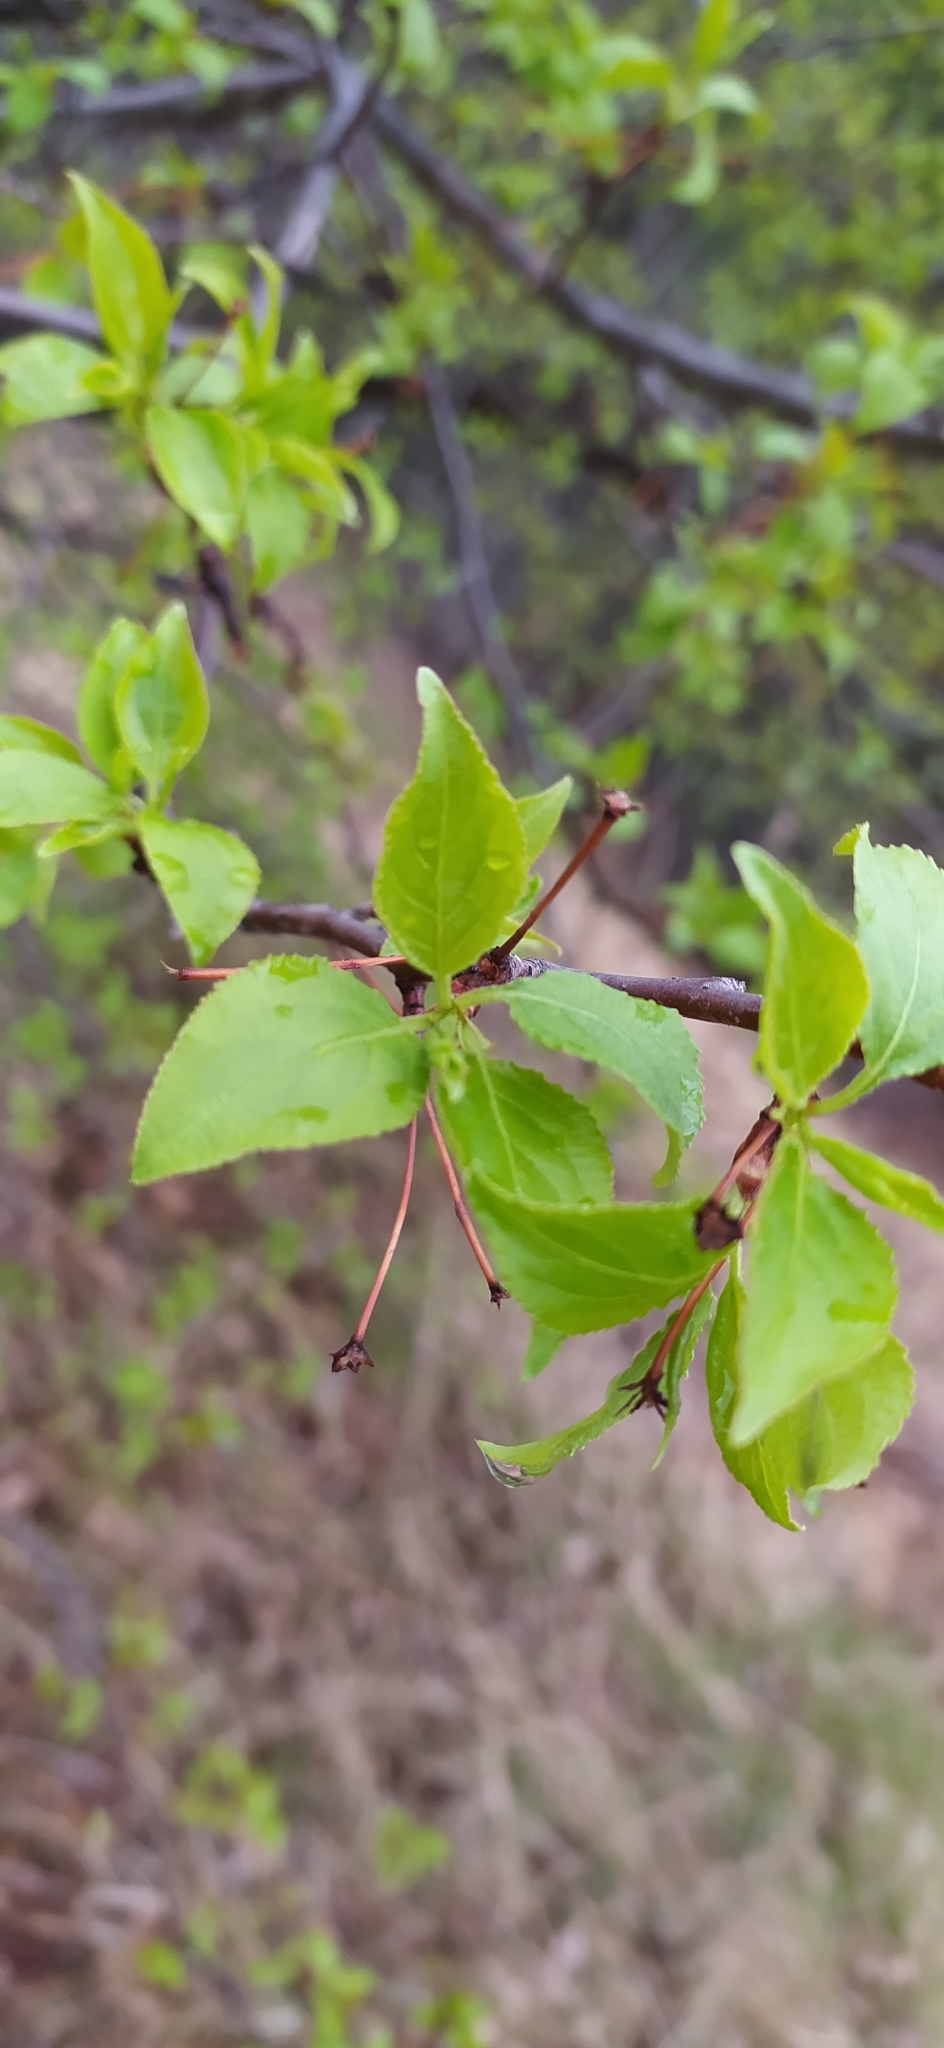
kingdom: Plantae
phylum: Tracheophyta
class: Magnoliopsida
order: Rosales
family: Rosaceae
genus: Malus
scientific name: Malus baccata
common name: Siberian crab
